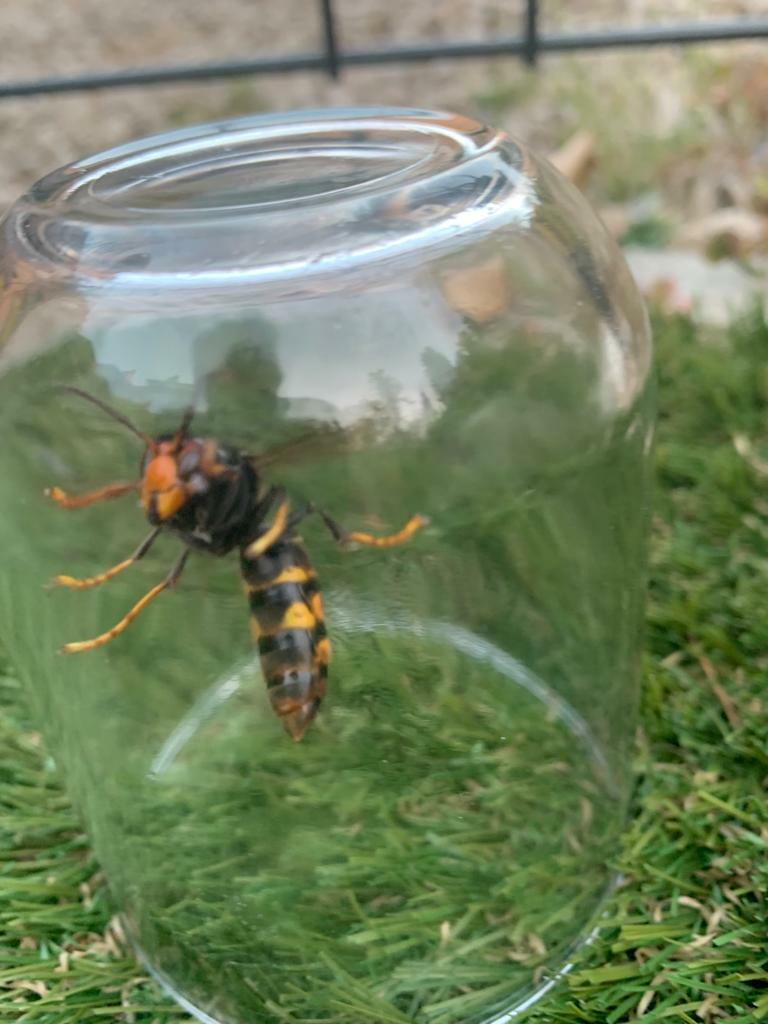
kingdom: Animalia
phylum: Arthropoda
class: Insecta
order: Hymenoptera
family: Vespidae
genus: Vespa
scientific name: Vespa velutina
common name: Asian hornet
